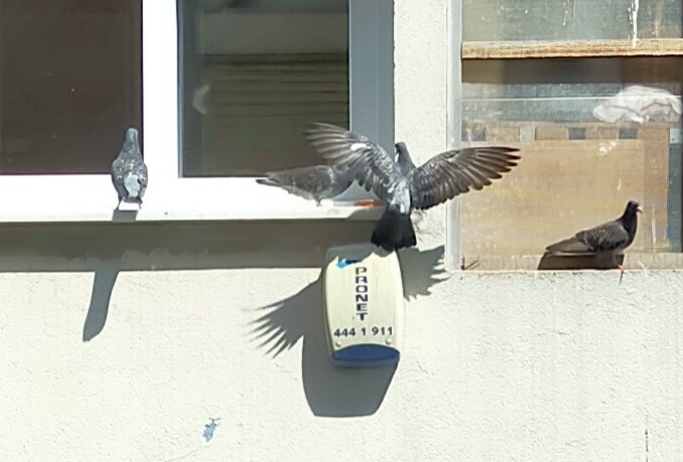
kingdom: Animalia
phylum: Chordata
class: Aves
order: Columbiformes
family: Columbidae
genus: Columba
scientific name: Columba livia
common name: Rock pigeon
